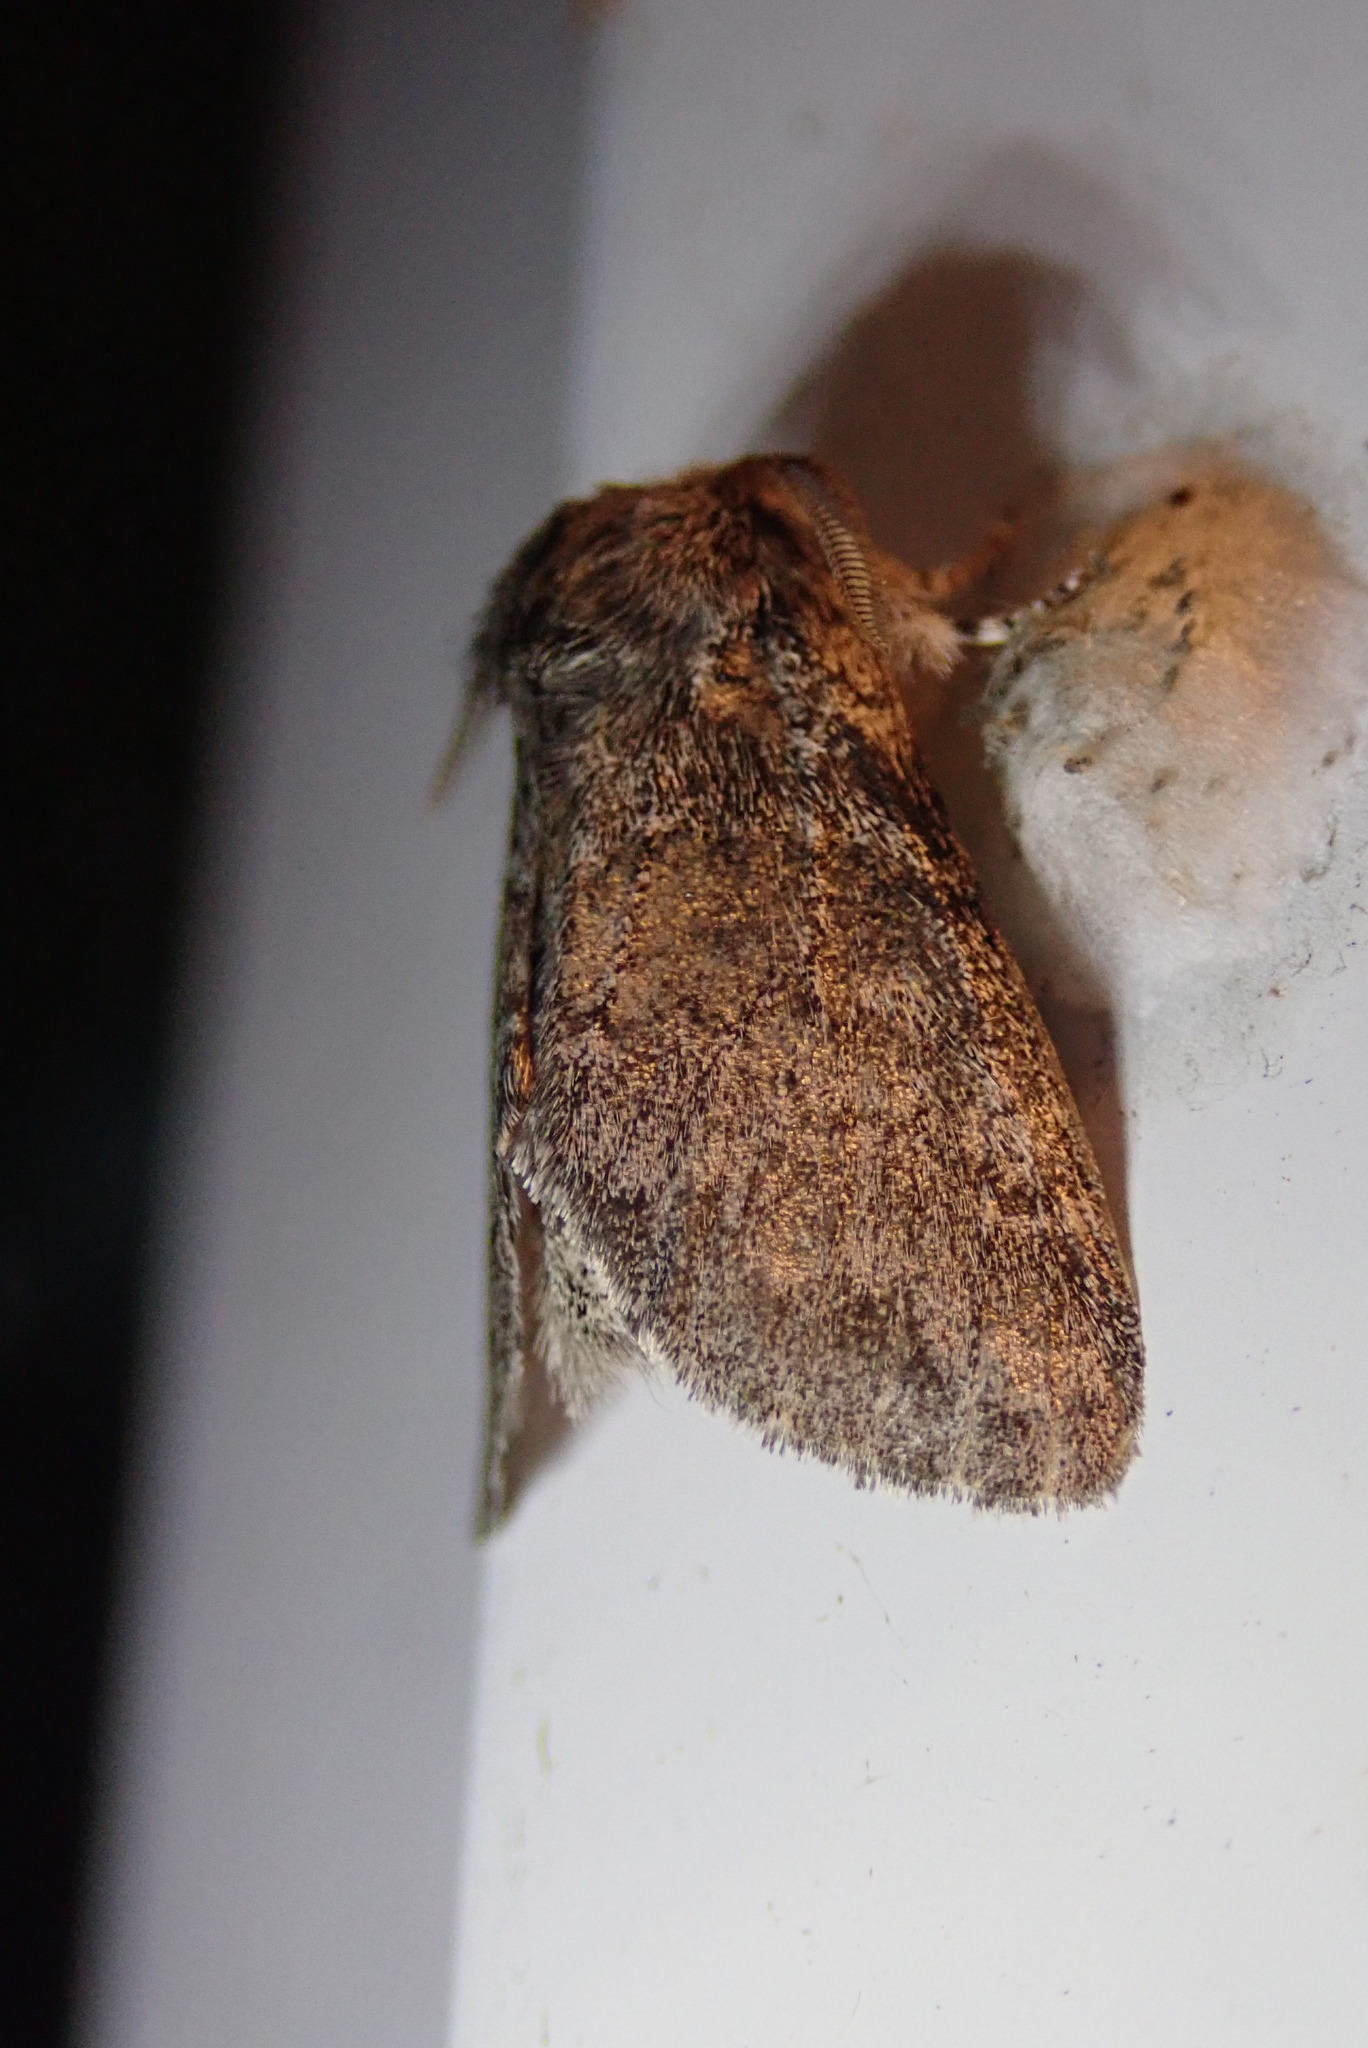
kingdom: Animalia
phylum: Arthropoda
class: Insecta
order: Lepidoptera
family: Notodontidae
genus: Gluphisia
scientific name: Gluphisia septentrionis
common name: Common gluphisia
